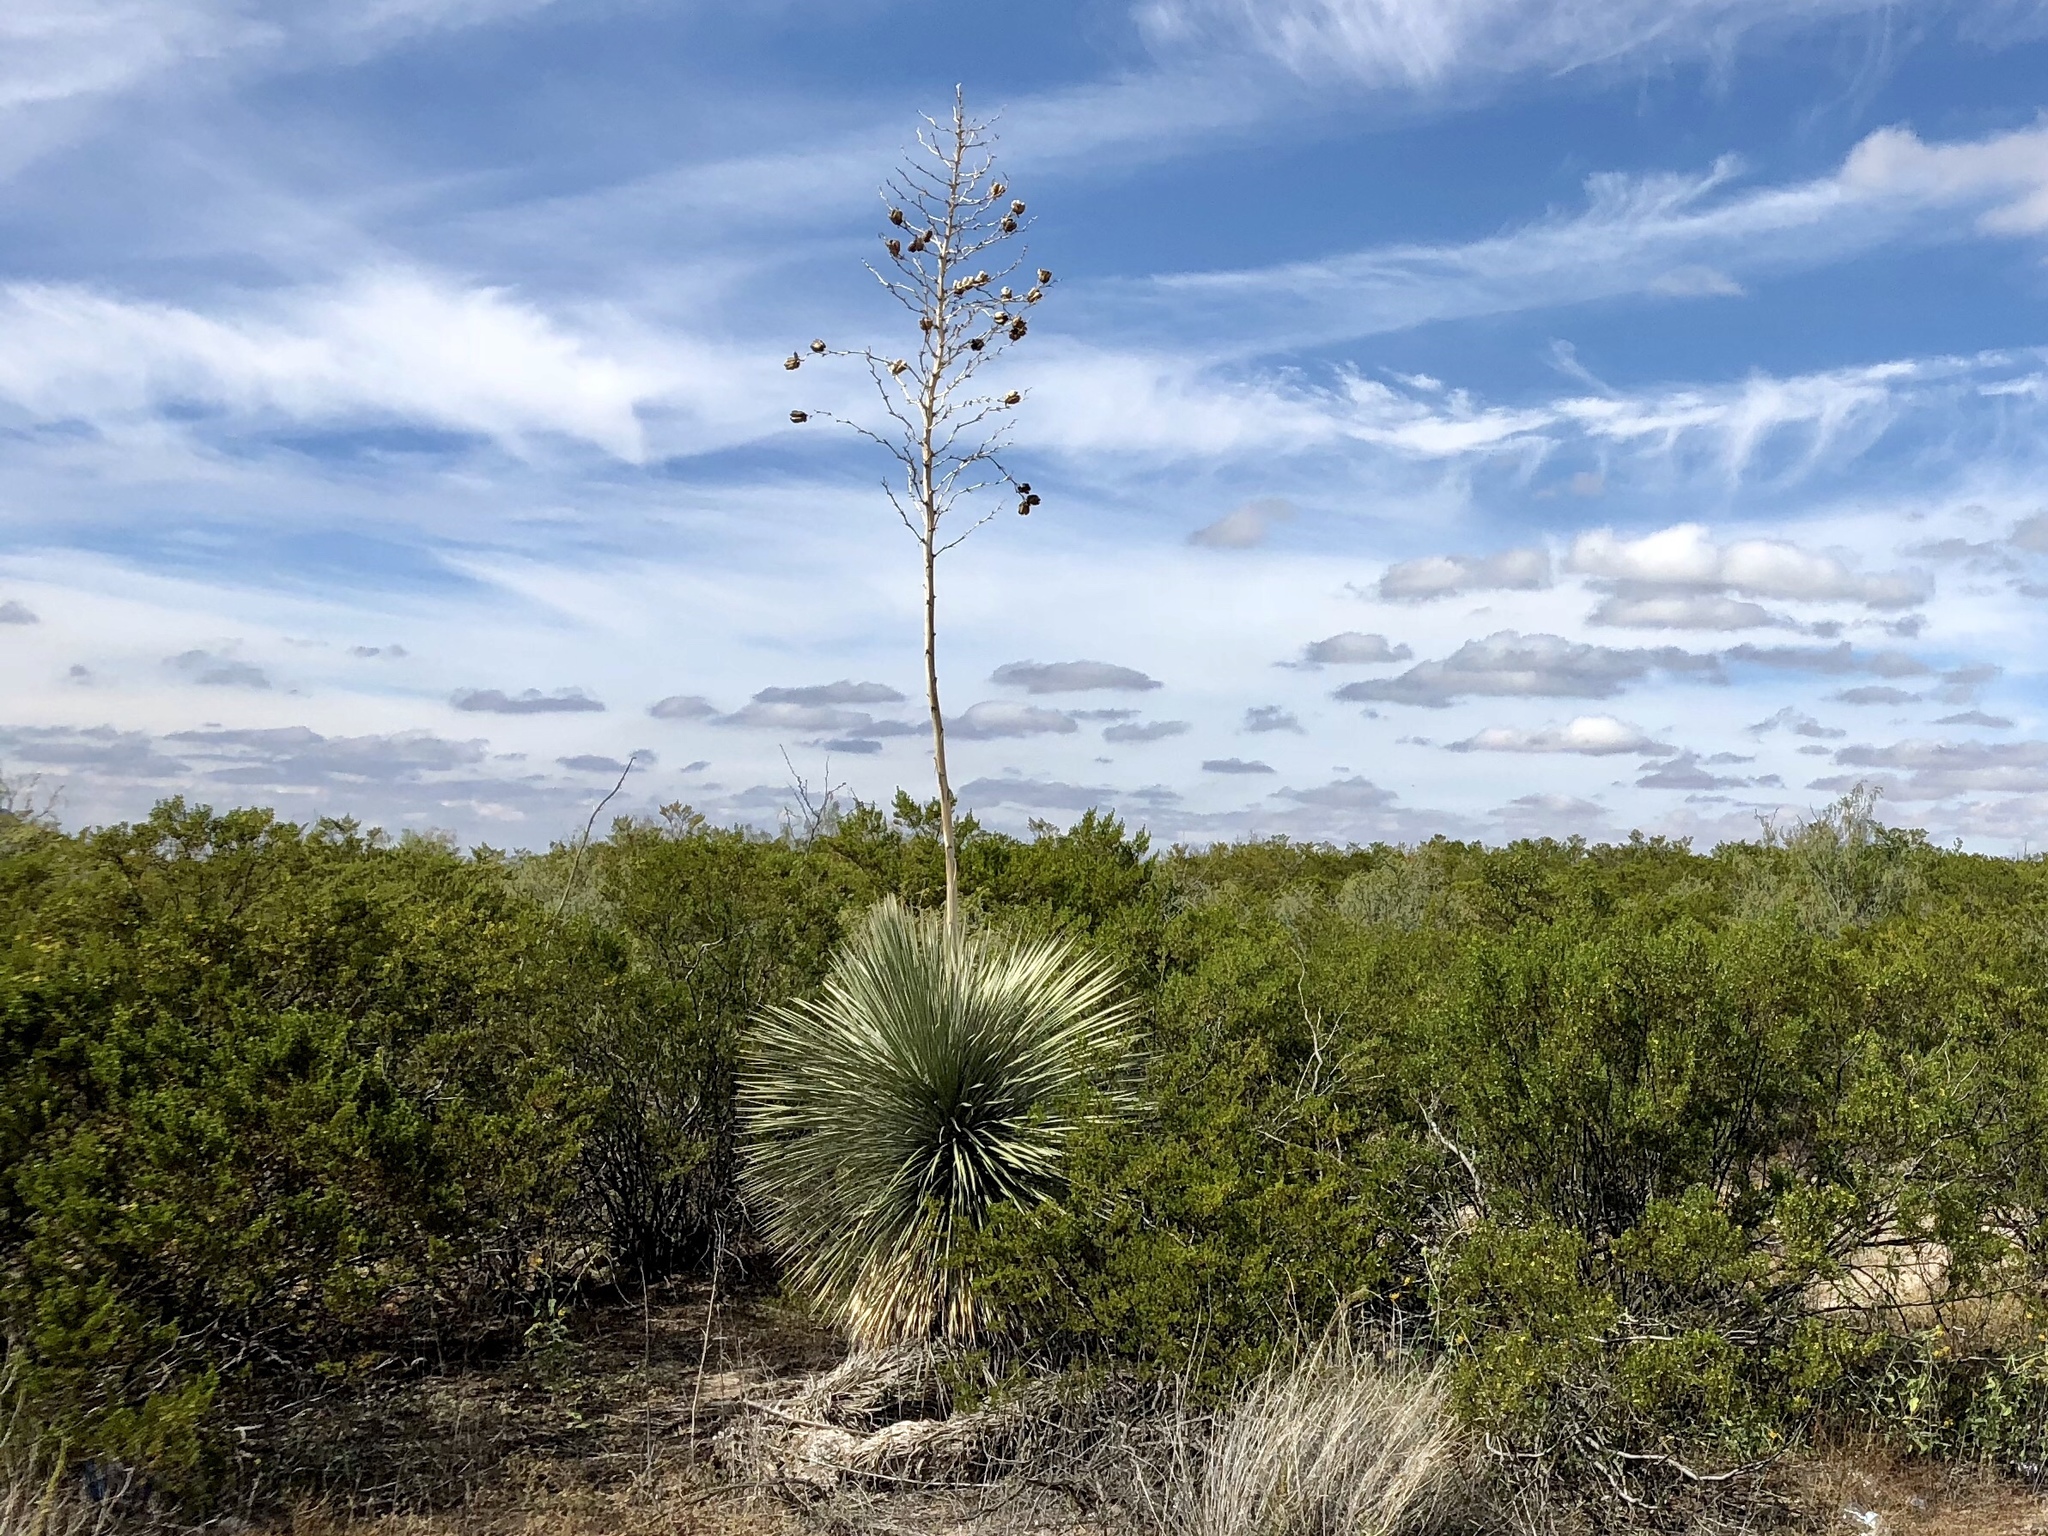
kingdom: Plantae
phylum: Tracheophyta
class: Liliopsida
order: Asparagales
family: Asparagaceae
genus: Yucca
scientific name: Yucca elata
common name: Palmella
